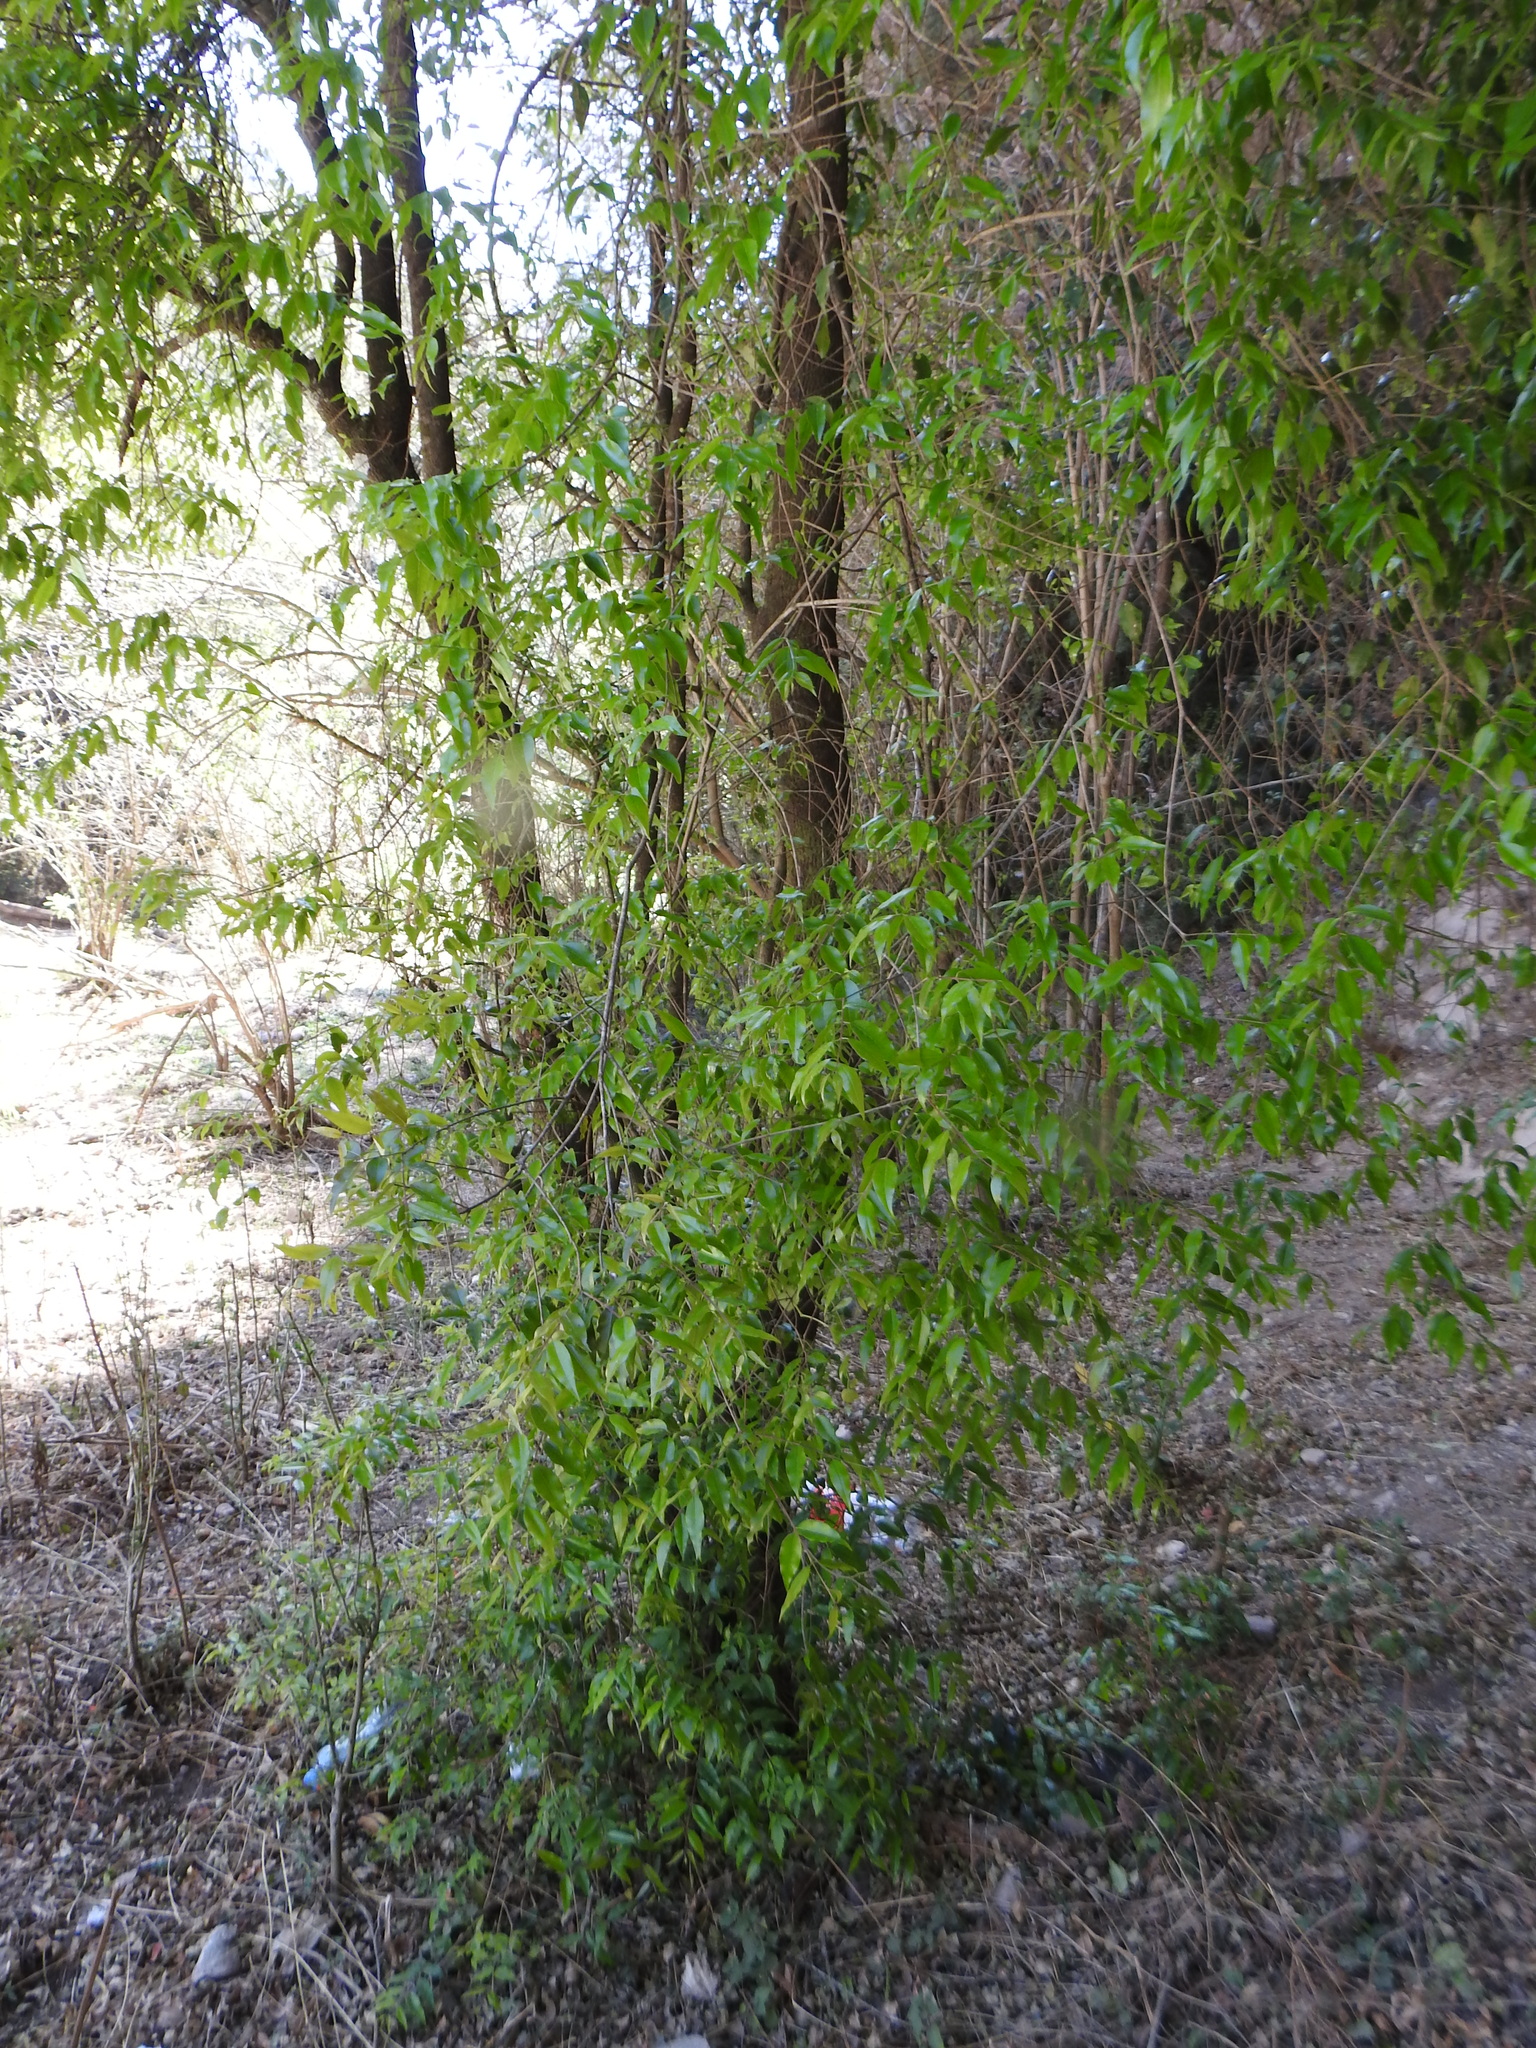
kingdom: Plantae
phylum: Tracheophyta
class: Magnoliopsida
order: Myrtales
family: Myrtaceae
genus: Blepharocalyx
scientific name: Blepharocalyx salicifolius
